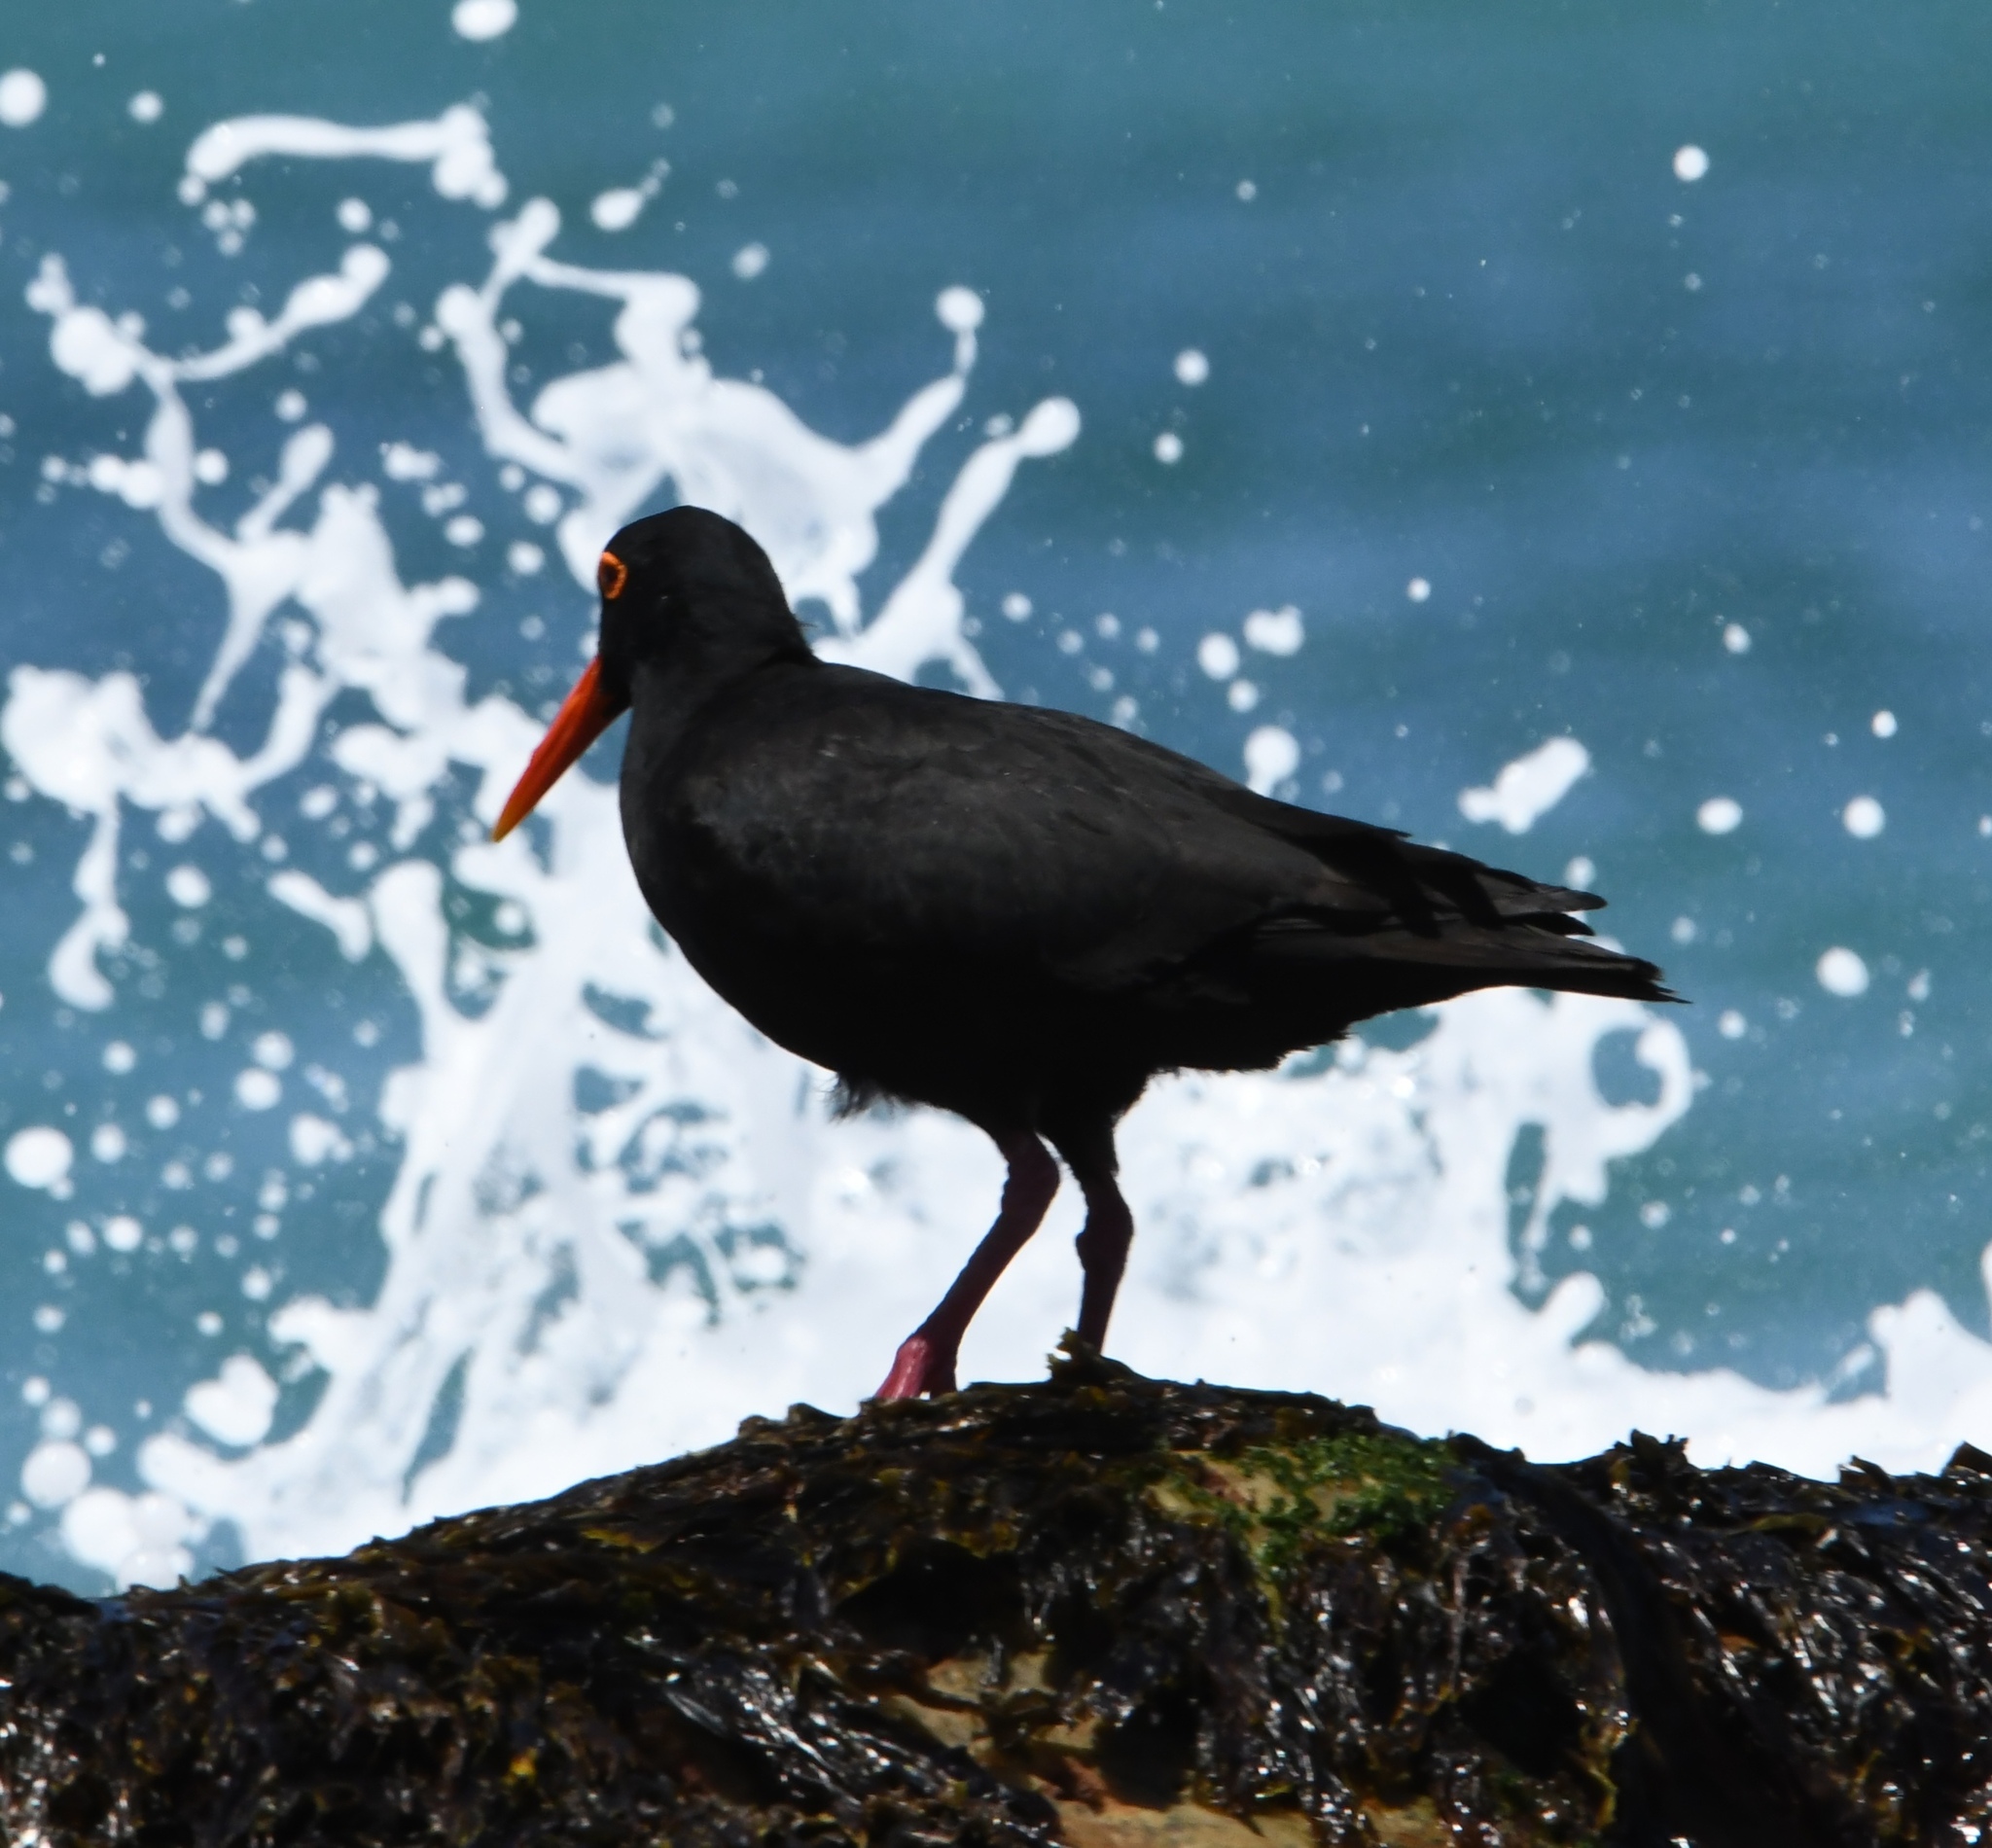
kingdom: Animalia
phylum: Chordata
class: Aves
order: Charadriiformes
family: Haematopodidae
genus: Haematopus
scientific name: Haematopus moquini
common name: African oystercatcher
